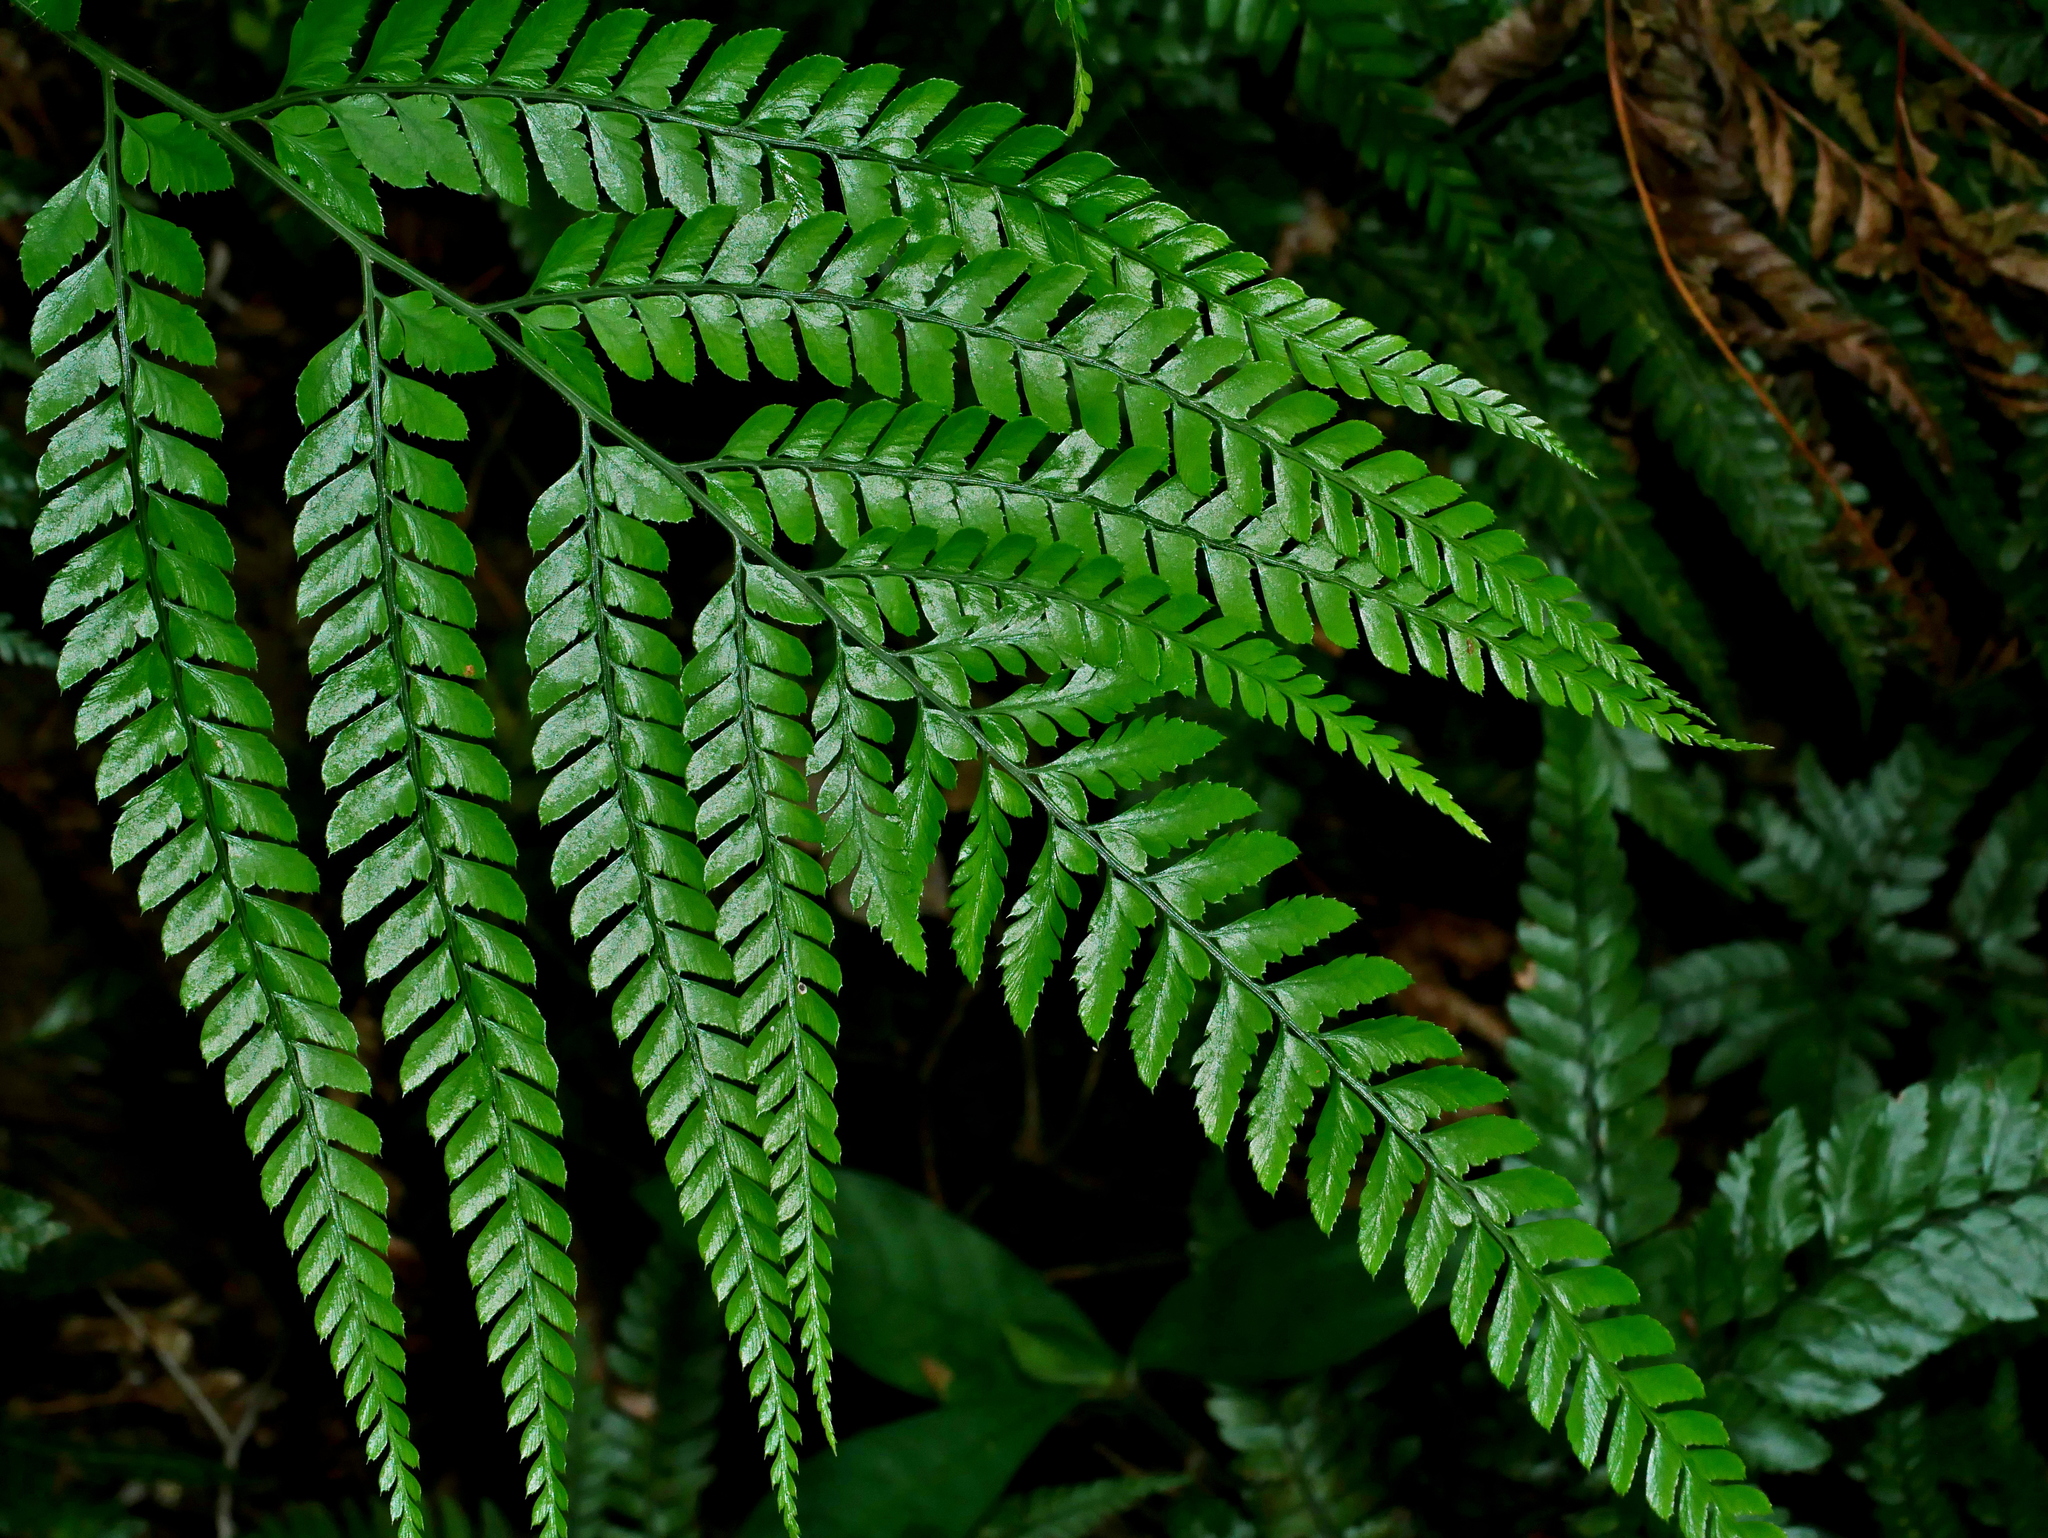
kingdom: Plantae
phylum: Tracheophyta
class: Polypodiopsida
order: Polypodiales
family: Dryopteridaceae
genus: Arachniodes
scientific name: Arachniodes aristata
